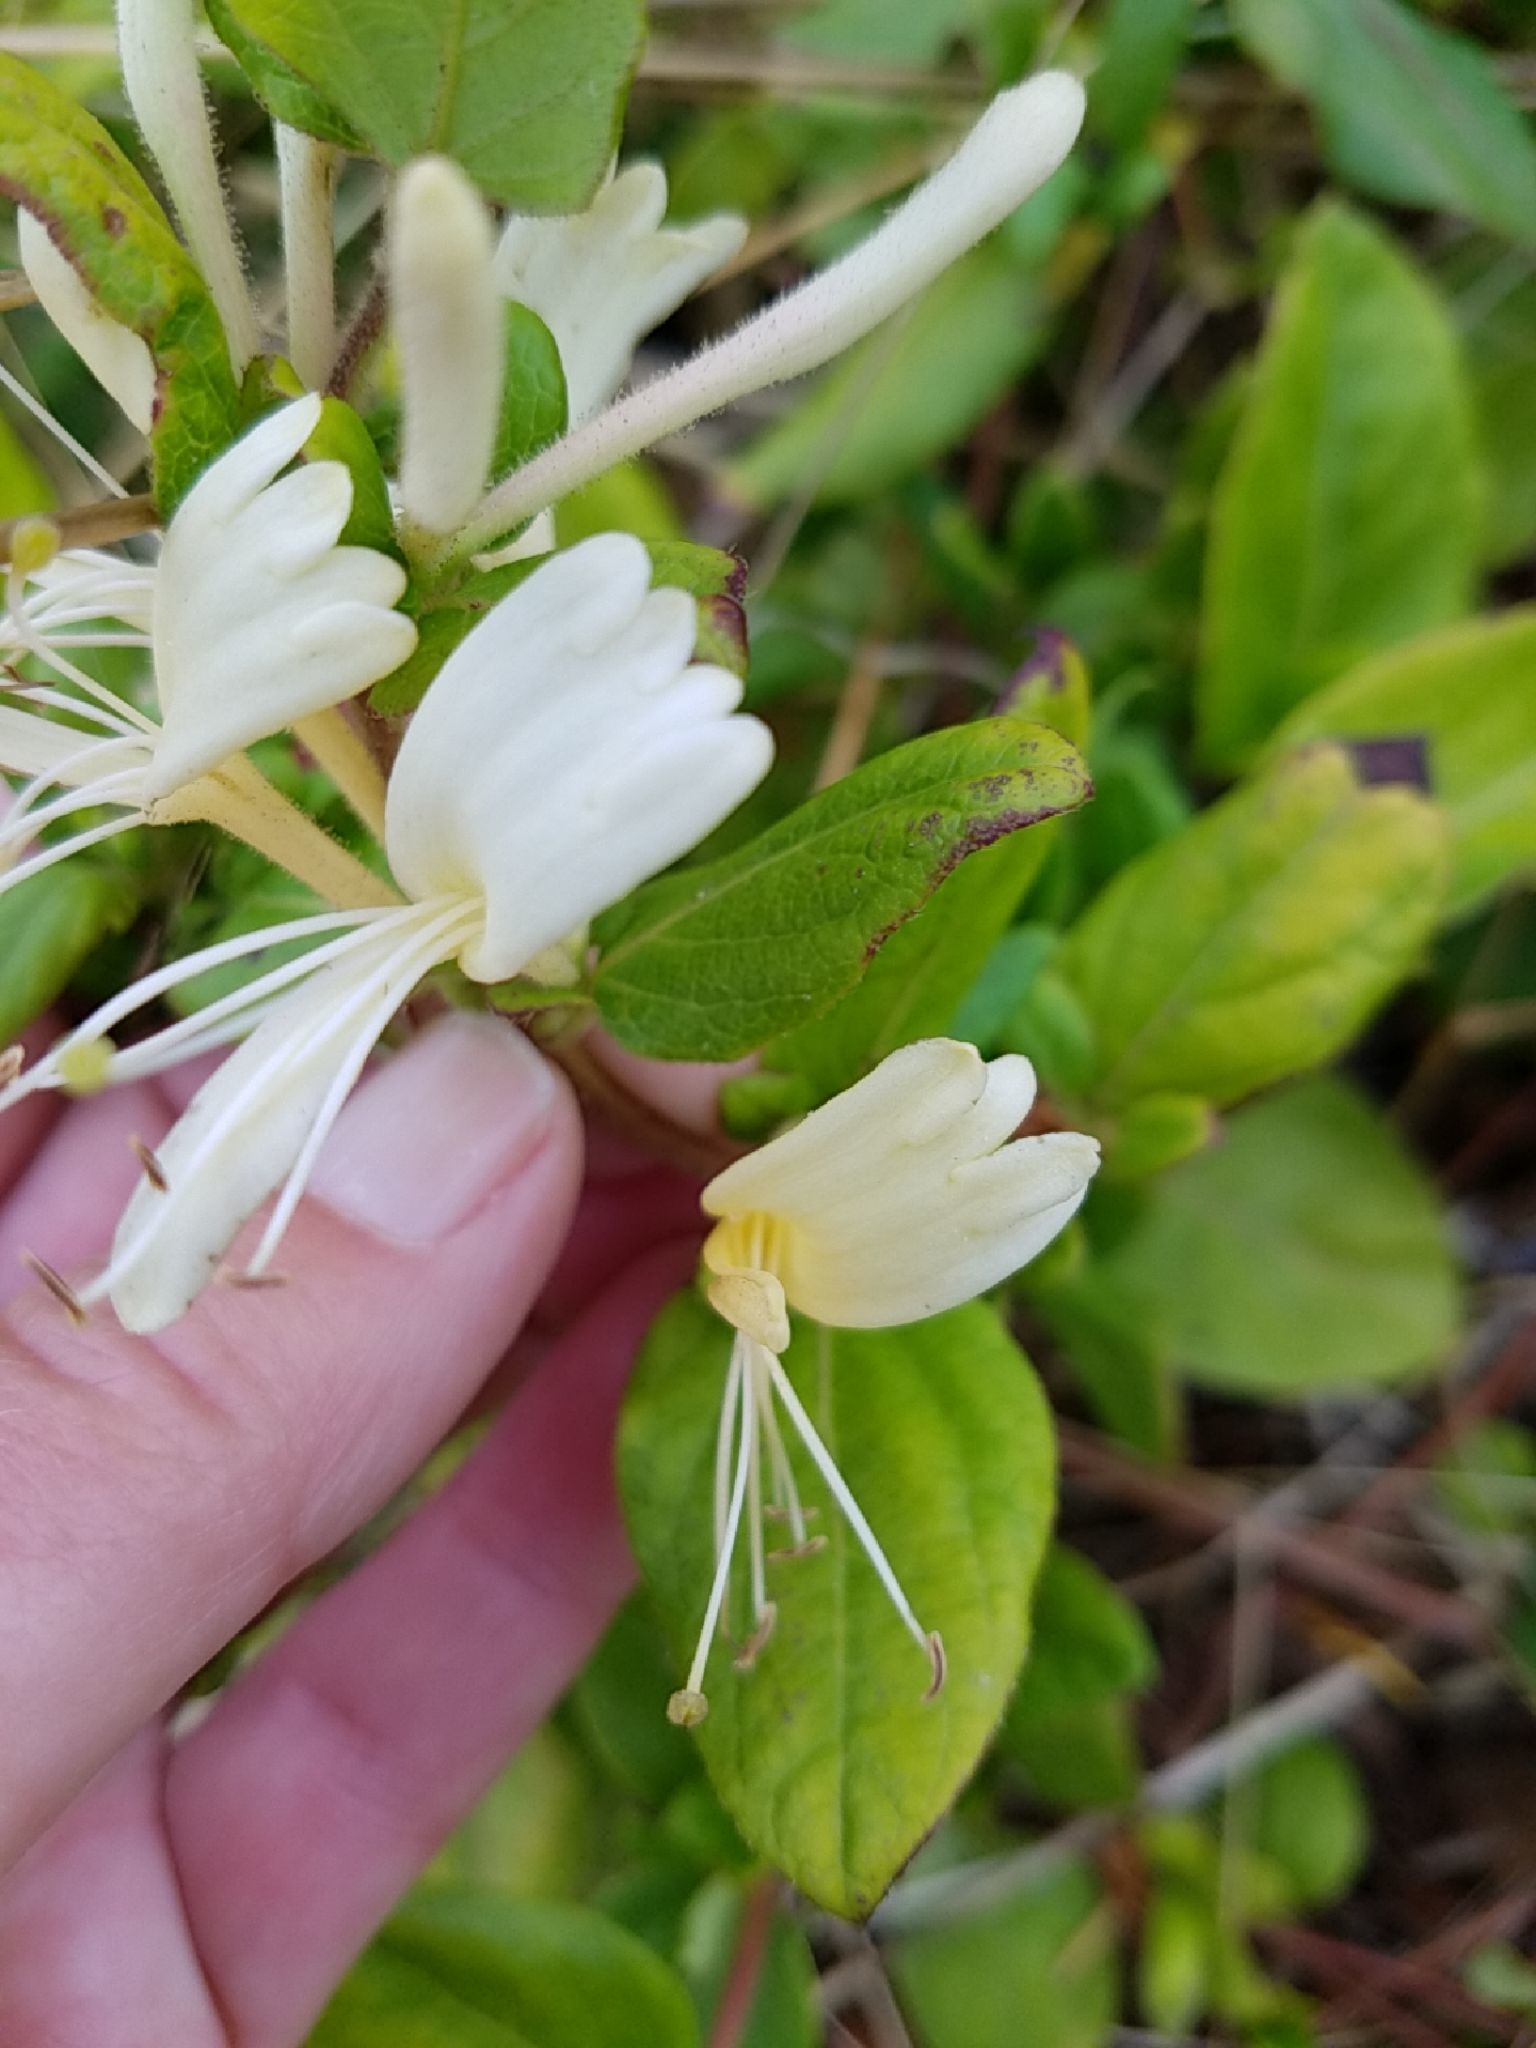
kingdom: Plantae
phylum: Tracheophyta
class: Magnoliopsida
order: Dipsacales
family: Caprifoliaceae
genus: Lonicera
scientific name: Lonicera japonica
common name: Japanese honeysuckle
